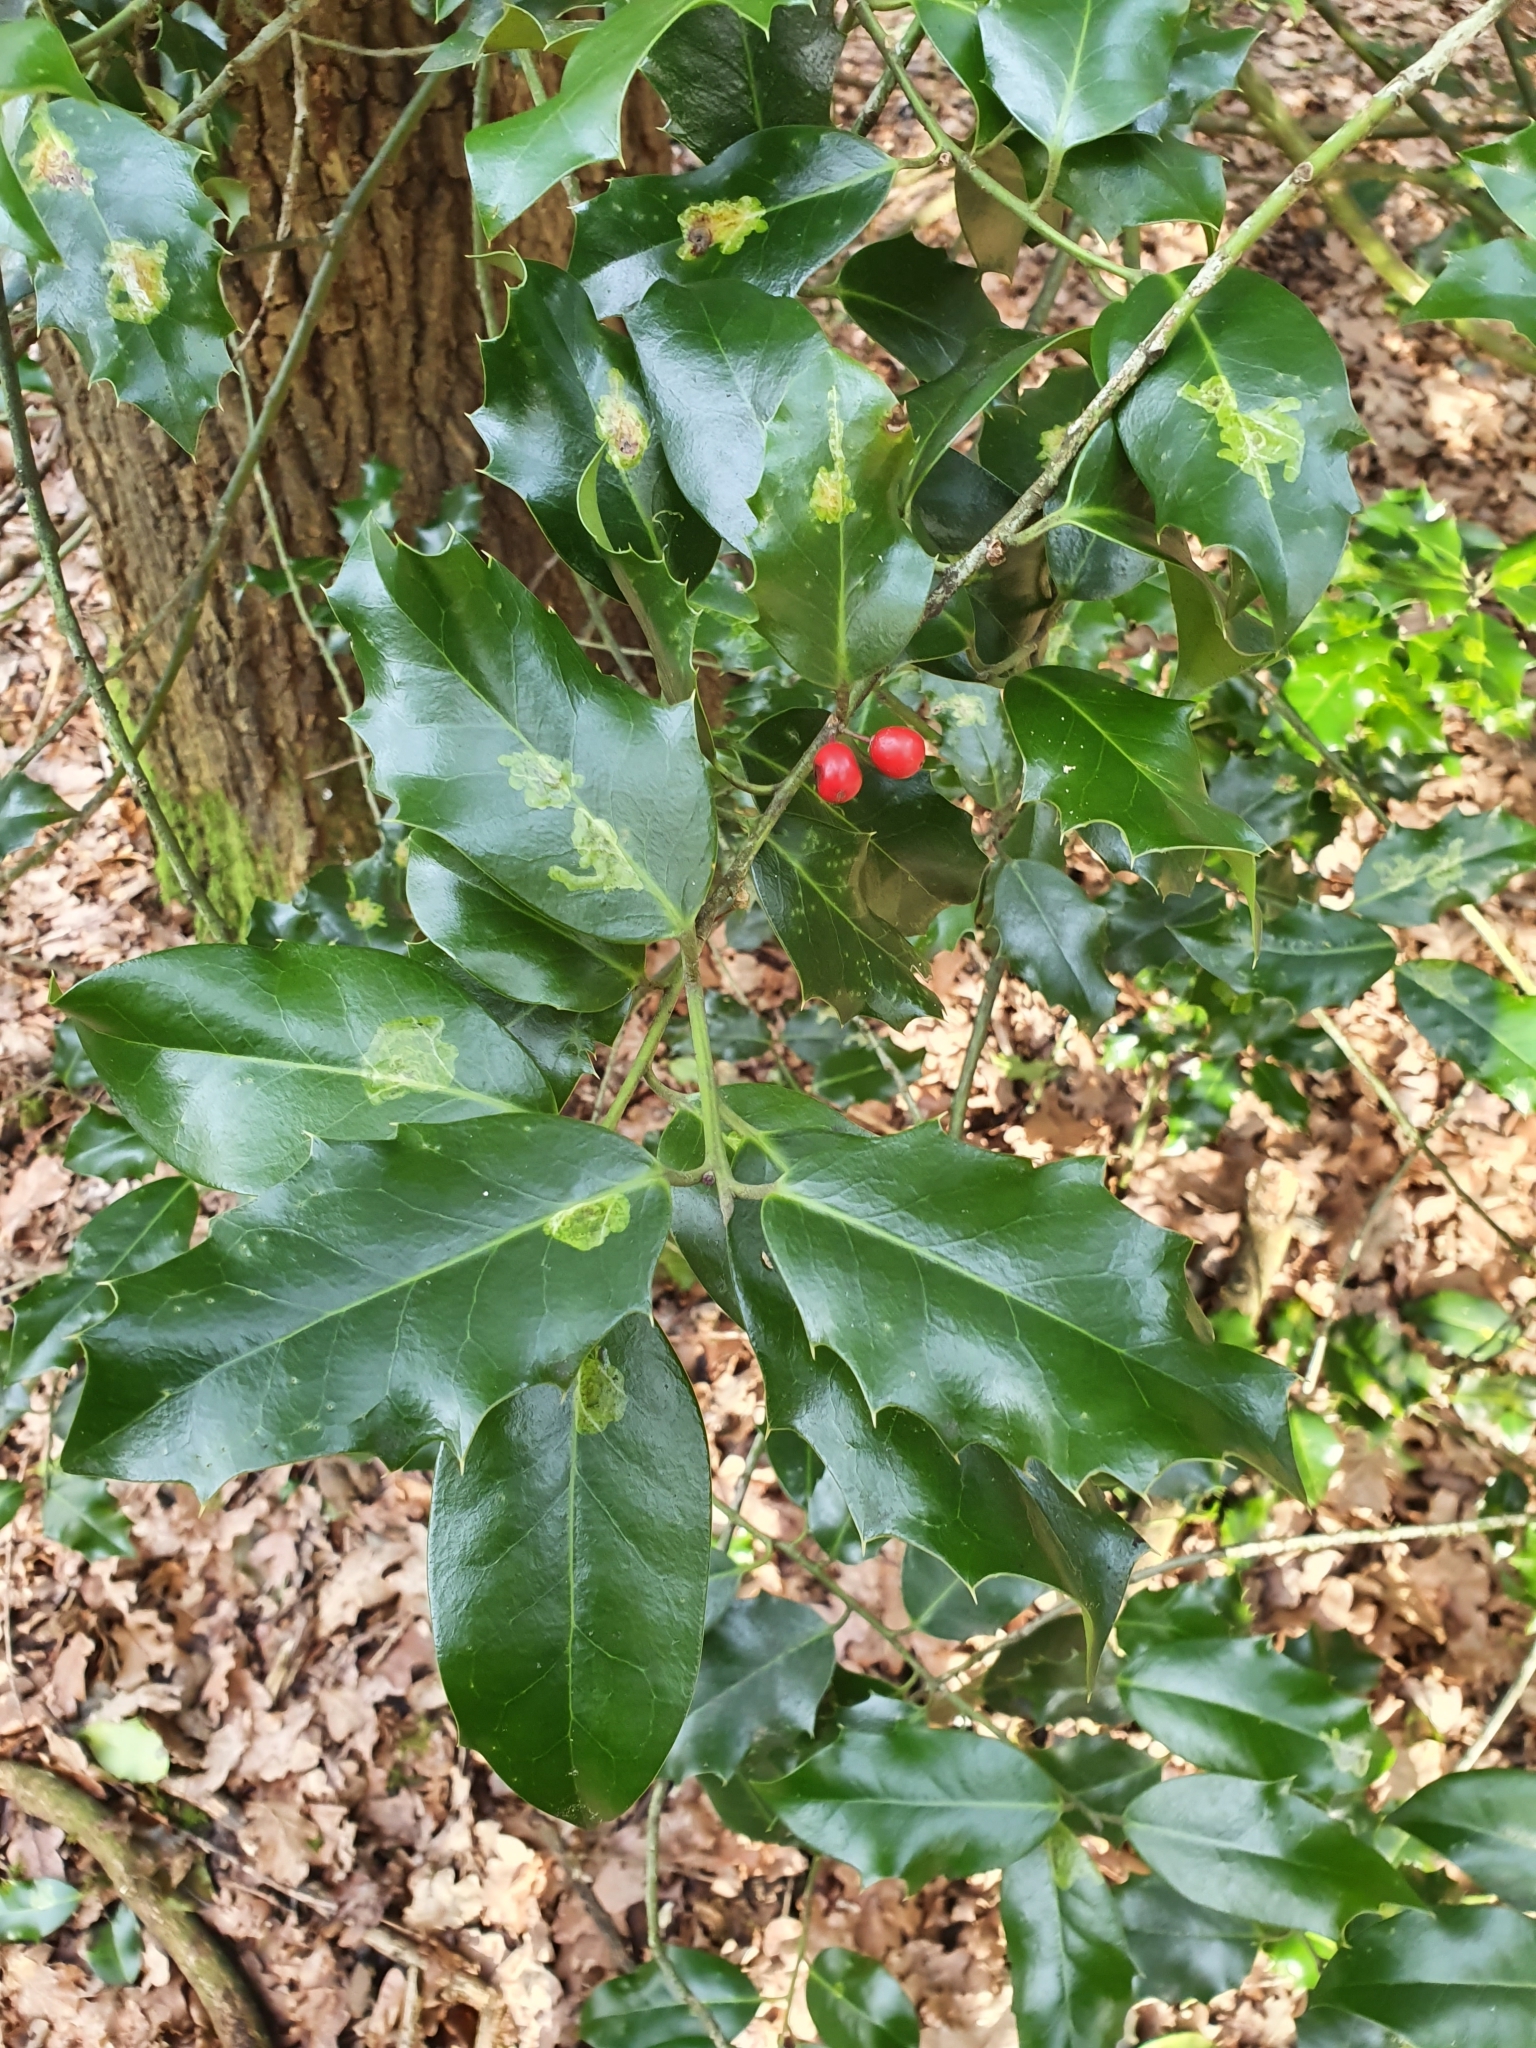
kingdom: Plantae
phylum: Tracheophyta
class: Magnoliopsida
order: Aquifoliales
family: Aquifoliaceae
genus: Ilex
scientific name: Ilex aquifolium
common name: English holly
